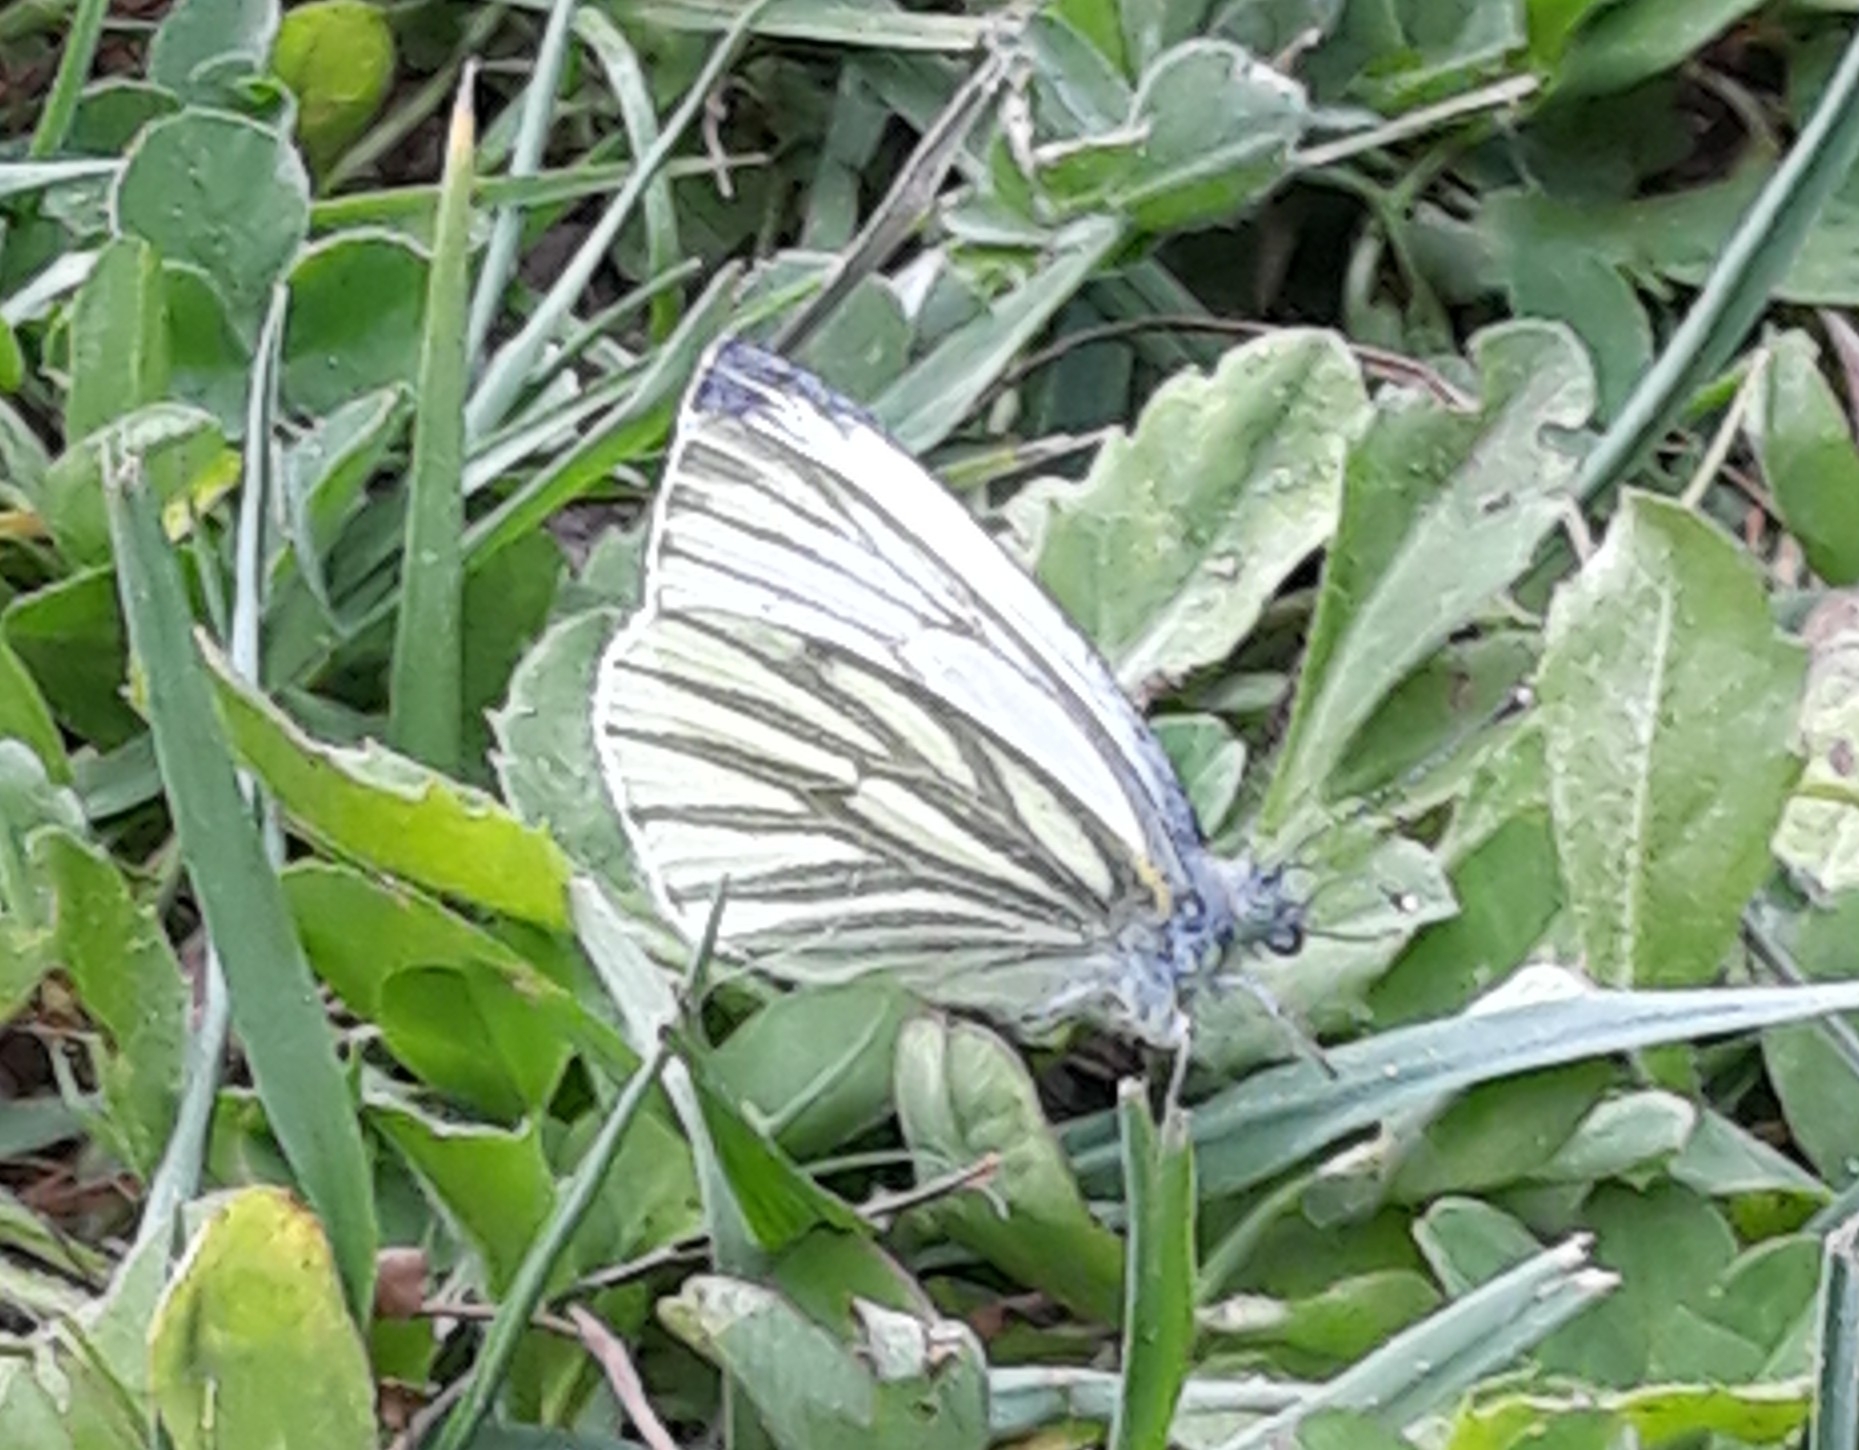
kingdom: Animalia
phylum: Arthropoda
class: Insecta
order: Lepidoptera
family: Pieridae
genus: Pieris
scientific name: Pieris napi
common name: Green-veined white
